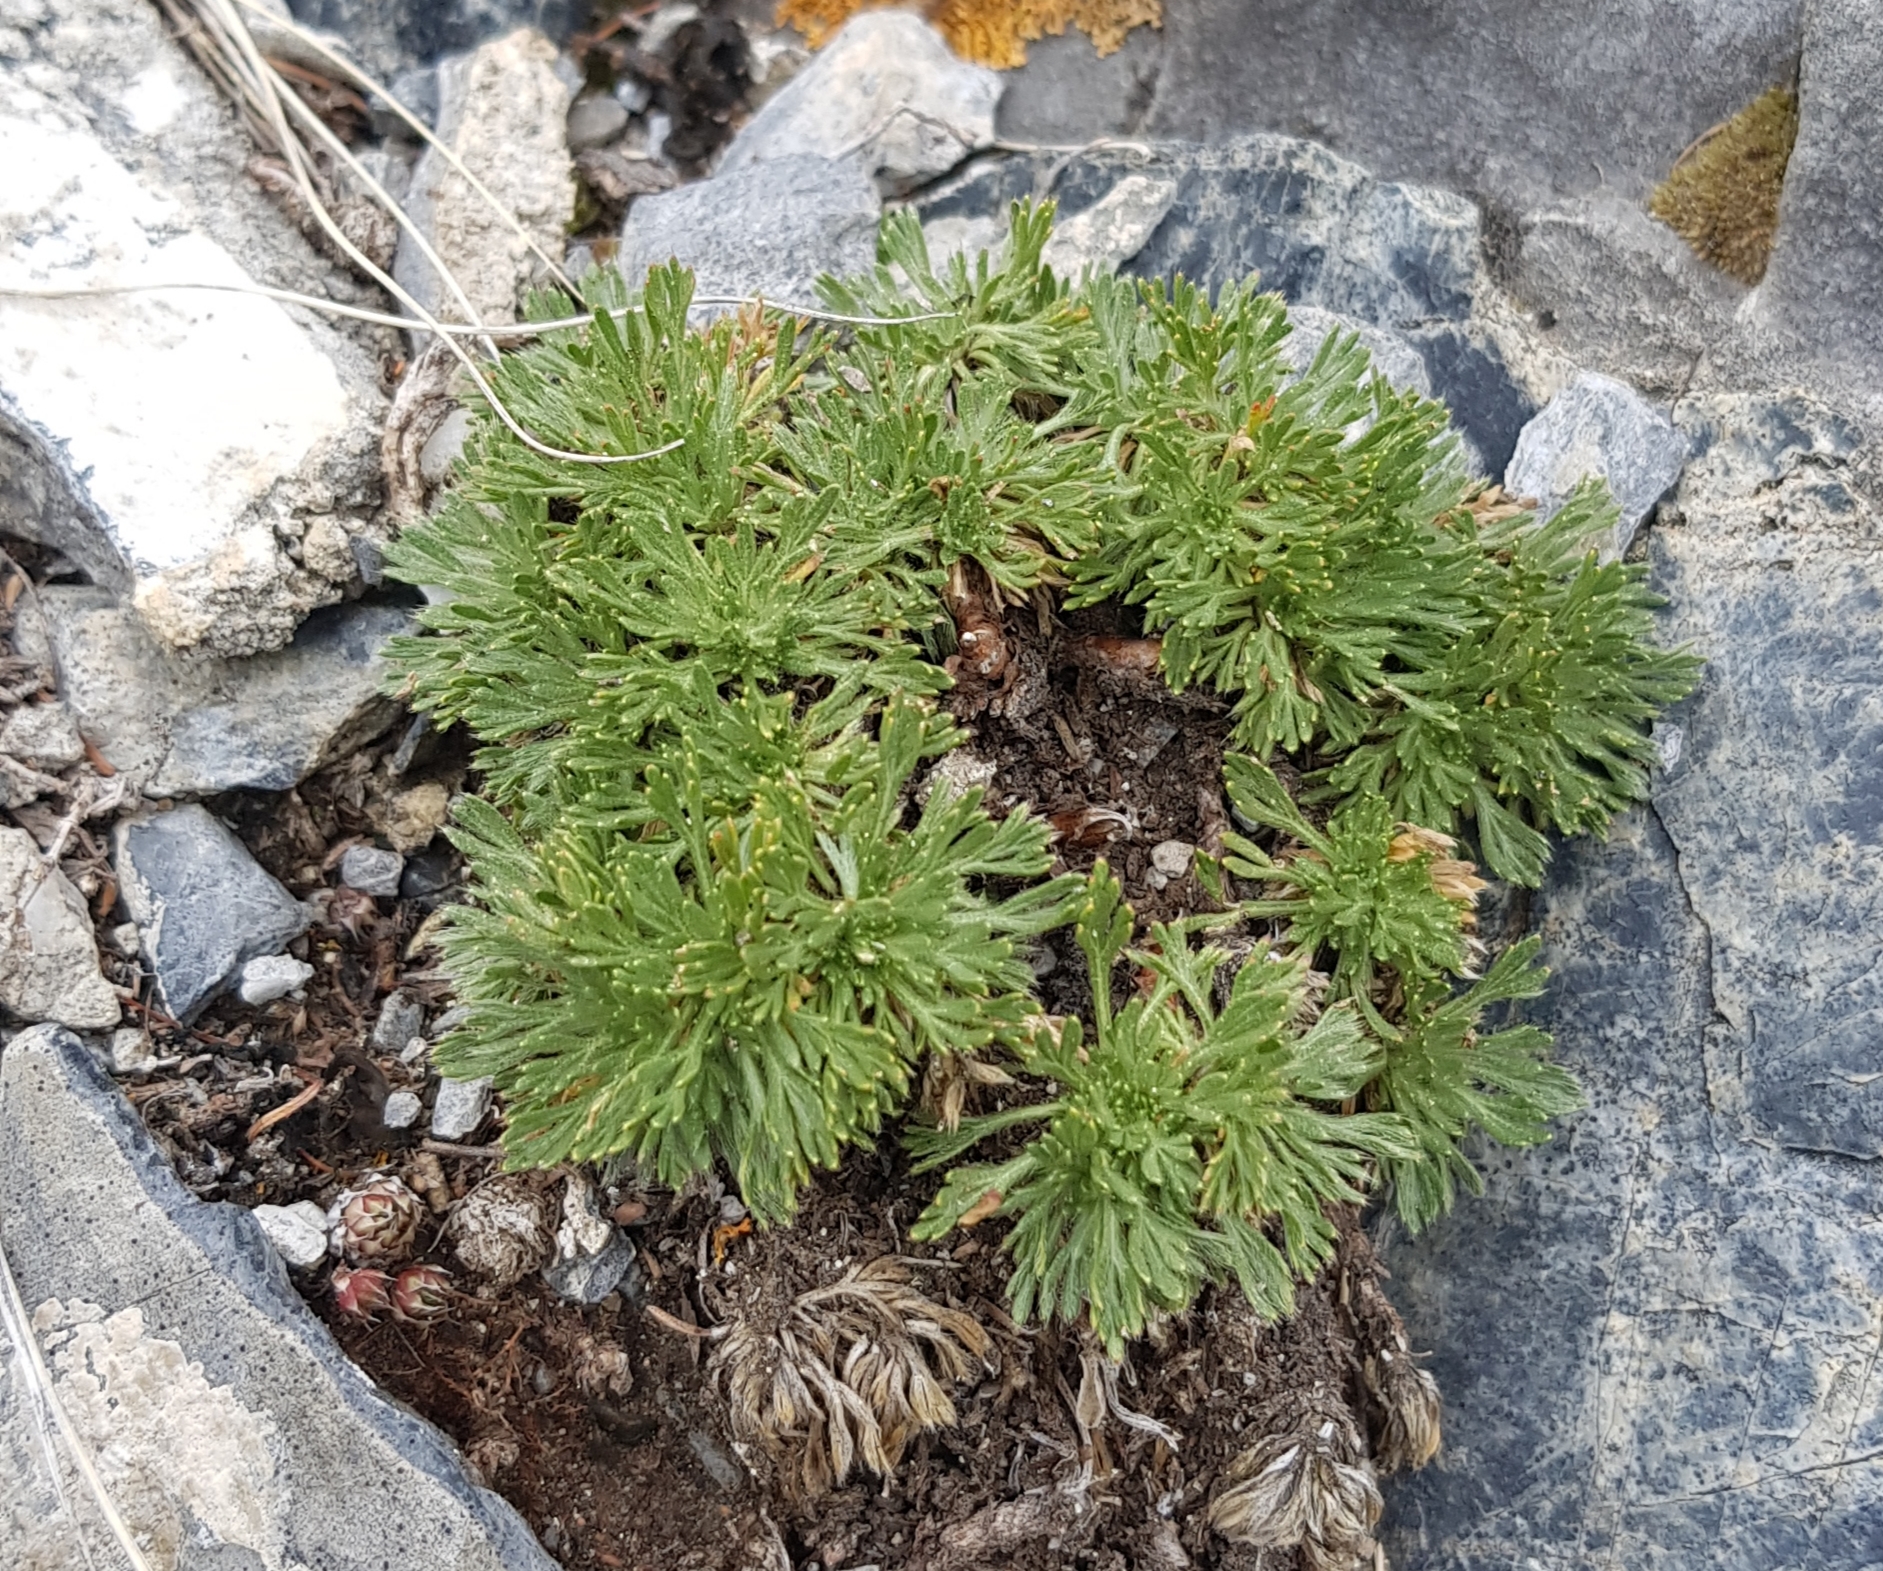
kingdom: Plantae
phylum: Tracheophyta
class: Magnoliopsida
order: Rosales
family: Rosaceae
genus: Chamaerhodos
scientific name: Chamaerhodos erecta
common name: American chamaerhodos
